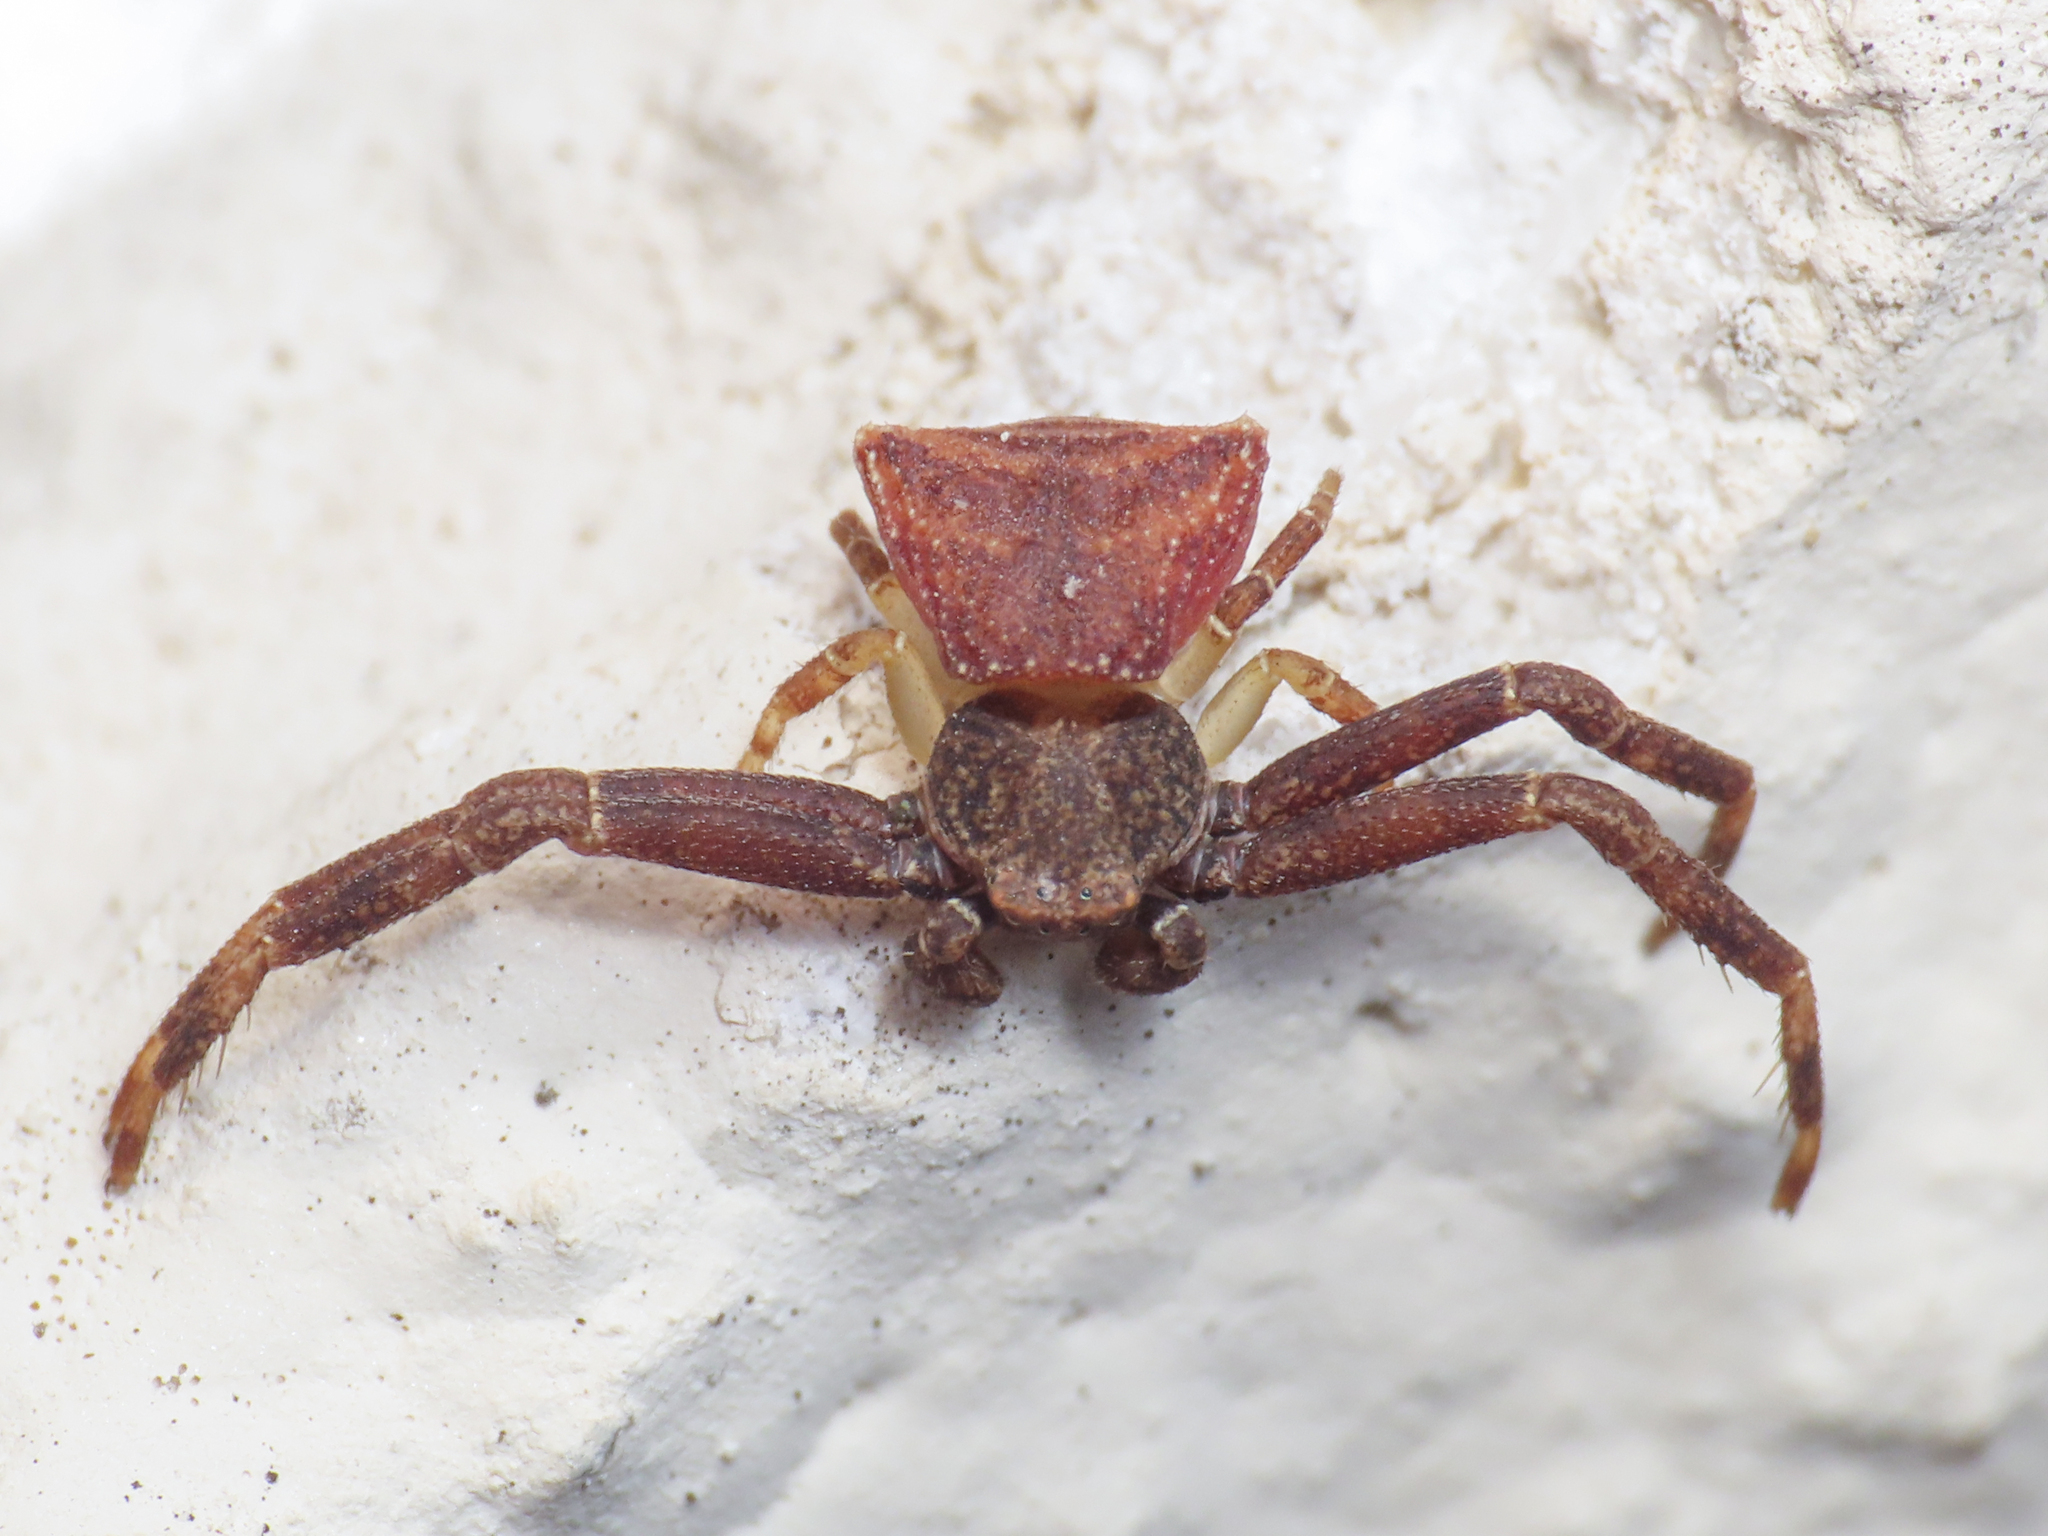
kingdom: Animalia
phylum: Arthropoda
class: Arachnida
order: Araneae
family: Thomisidae
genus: Pistius
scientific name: Pistius truncatus
